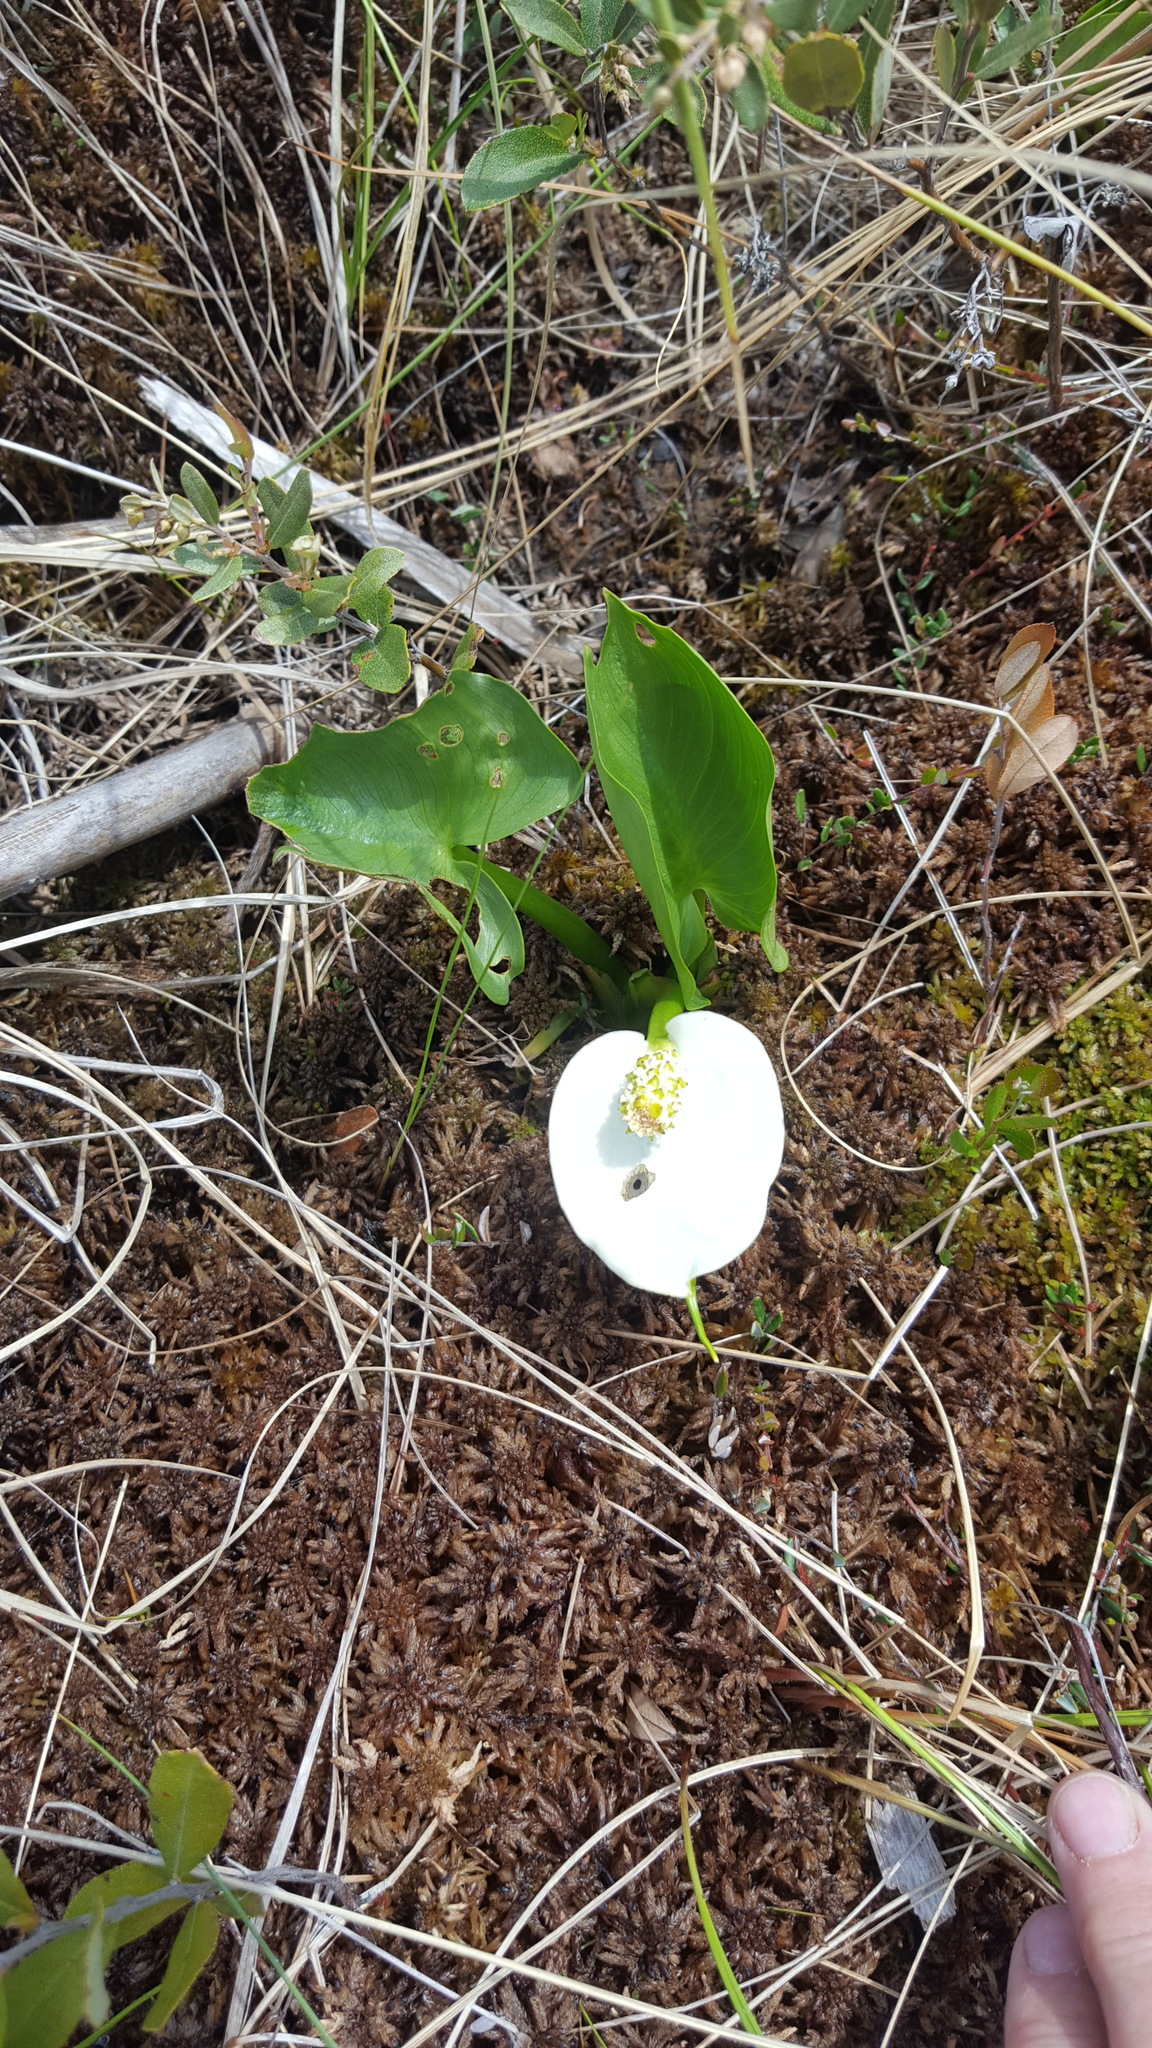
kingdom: Plantae
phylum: Tracheophyta
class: Liliopsida
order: Alismatales
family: Araceae
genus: Calla
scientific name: Calla palustris
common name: Bog arum
